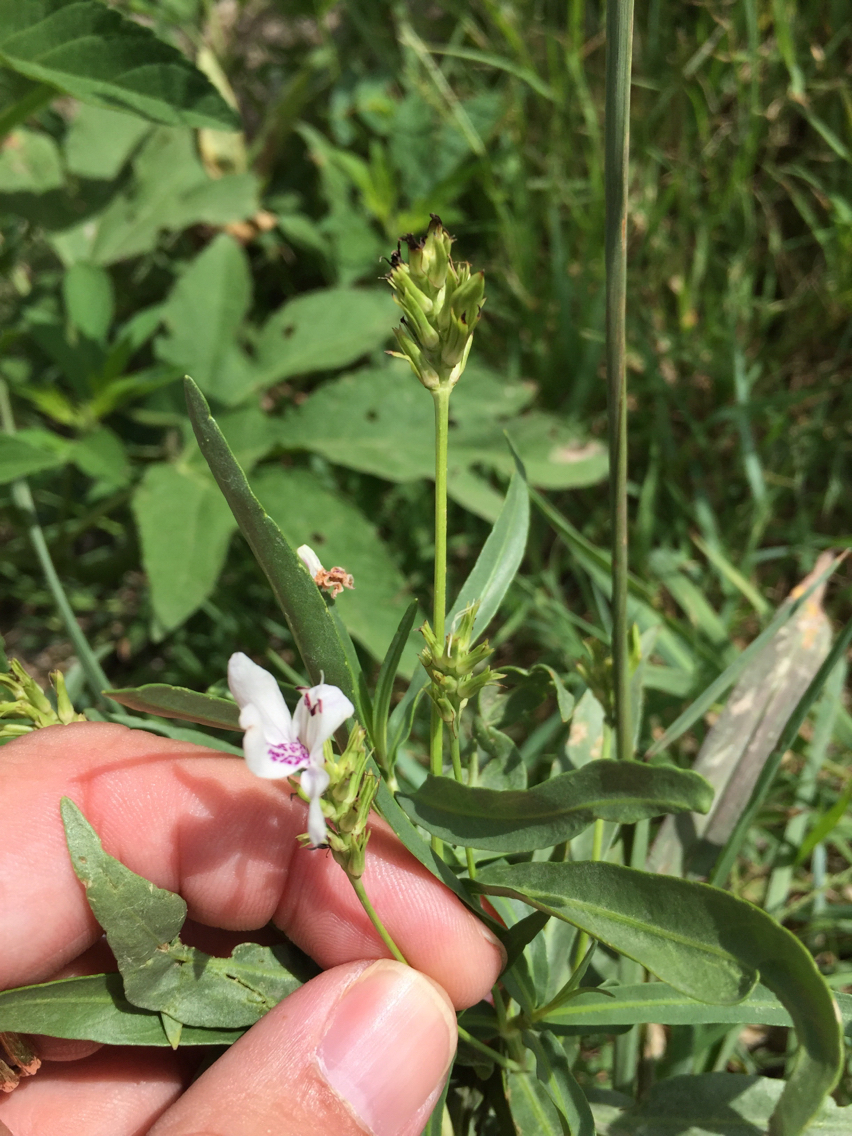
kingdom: Plantae
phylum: Tracheophyta
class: Magnoliopsida
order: Lamiales
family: Acanthaceae
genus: Dianthera
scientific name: Dianthera americana
